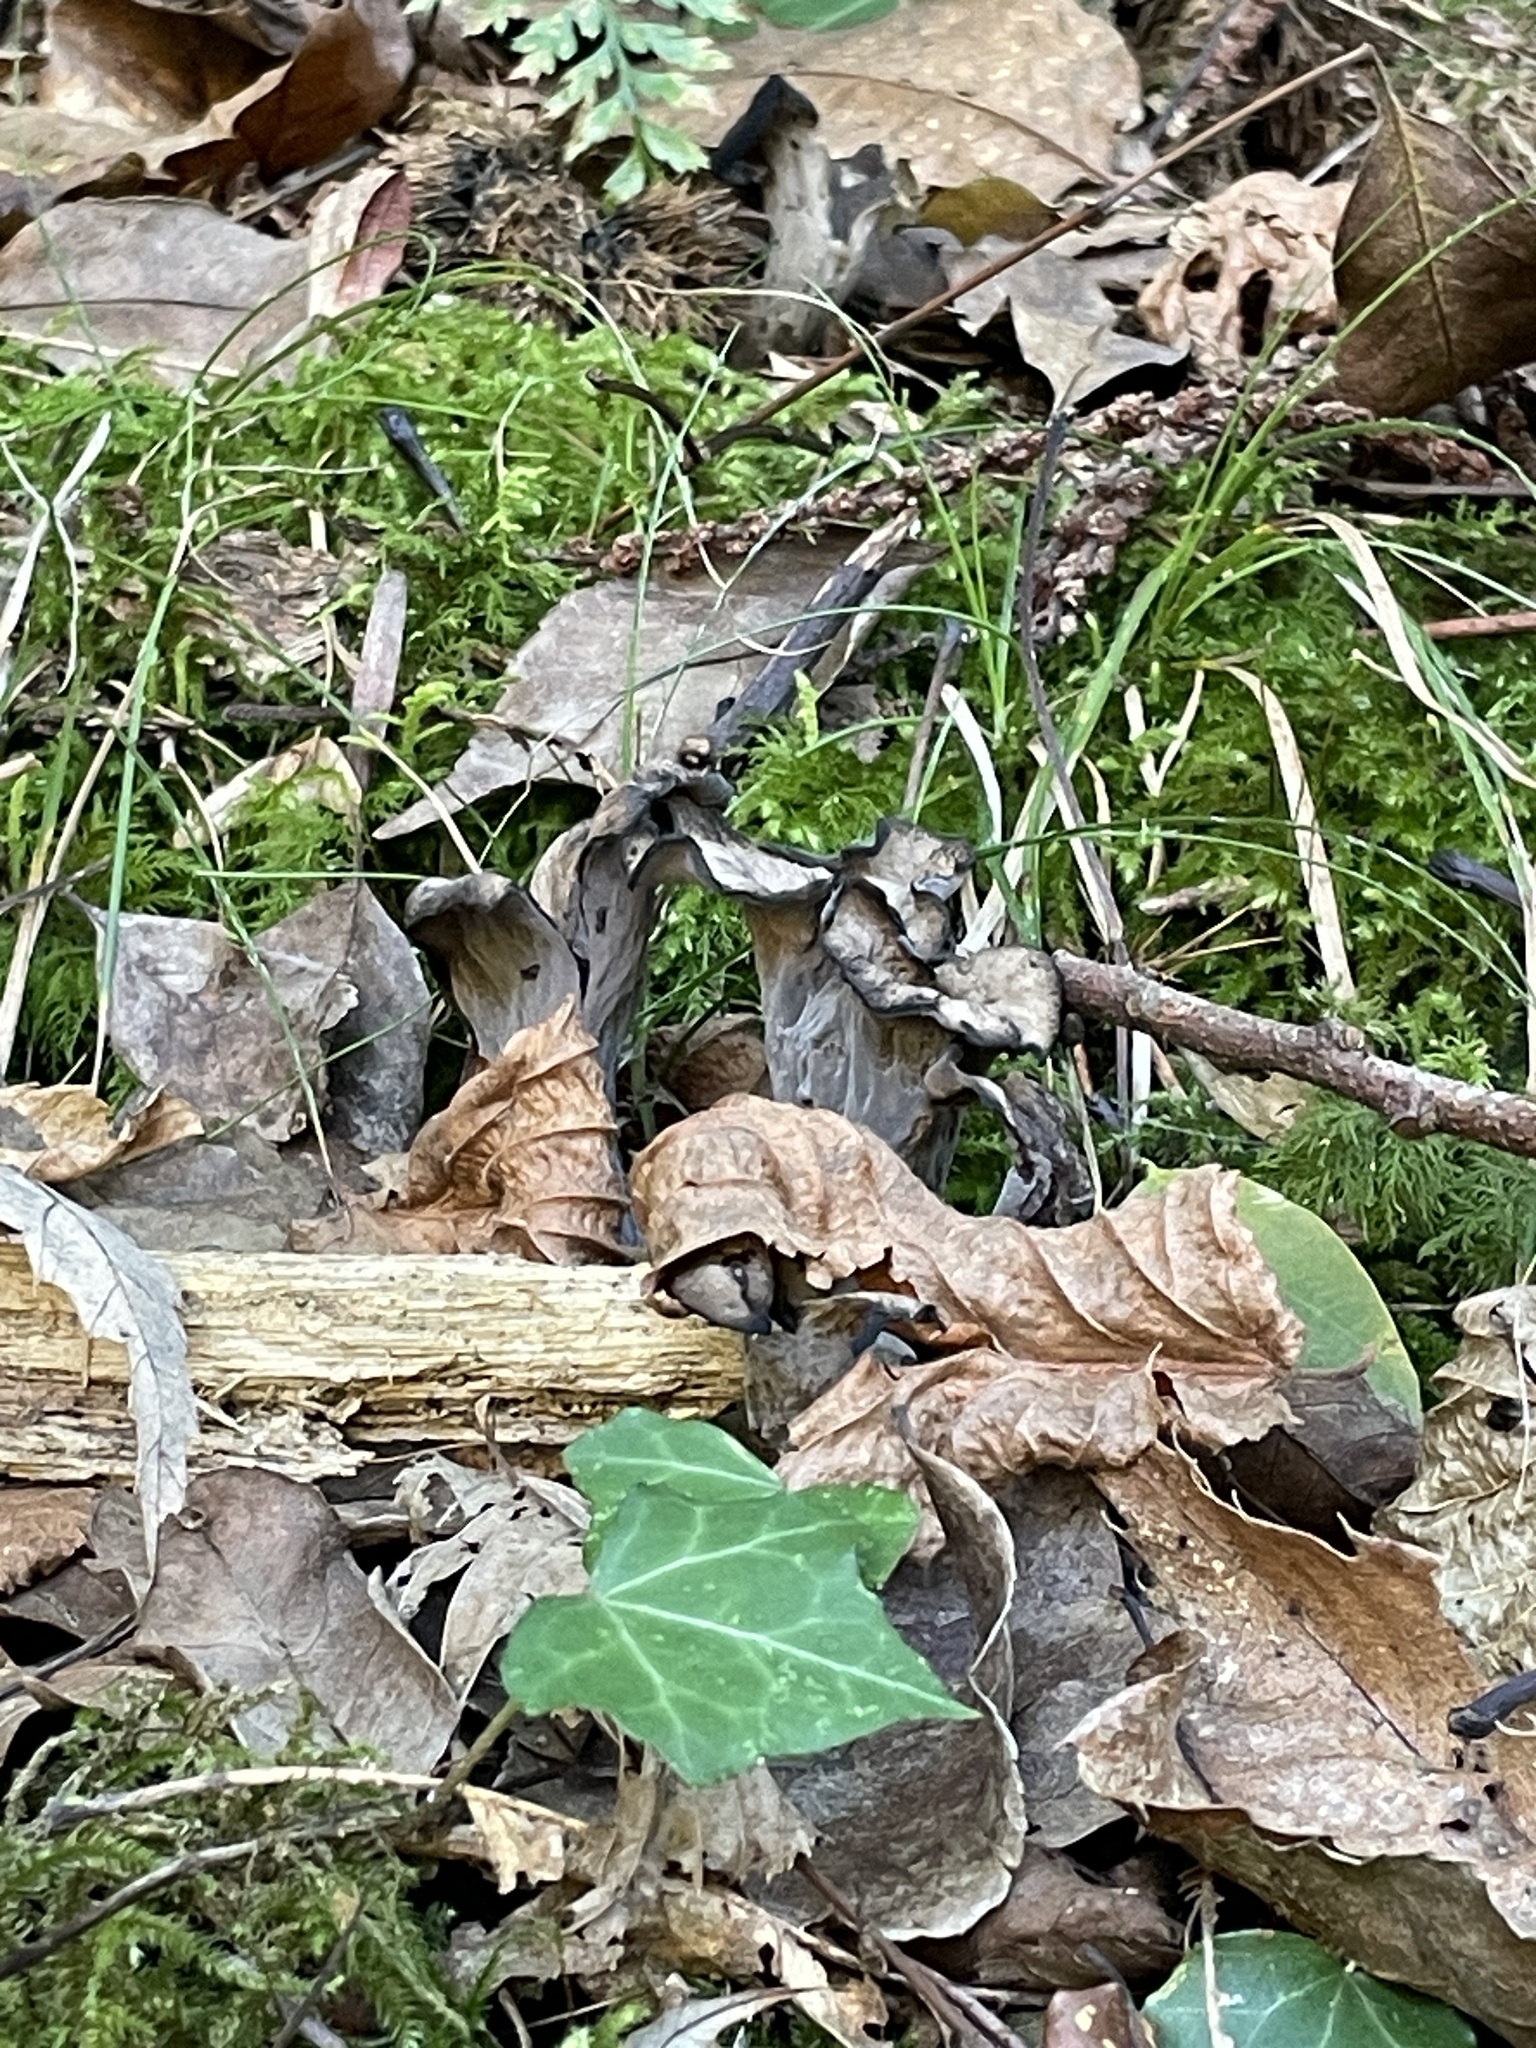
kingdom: Fungi
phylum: Basidiomycota
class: Agaricomycetes
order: Cantharellales
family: Hydnaceae
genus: Craterellus
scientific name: Craterellus cornucopioides
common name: Horn of plenty
